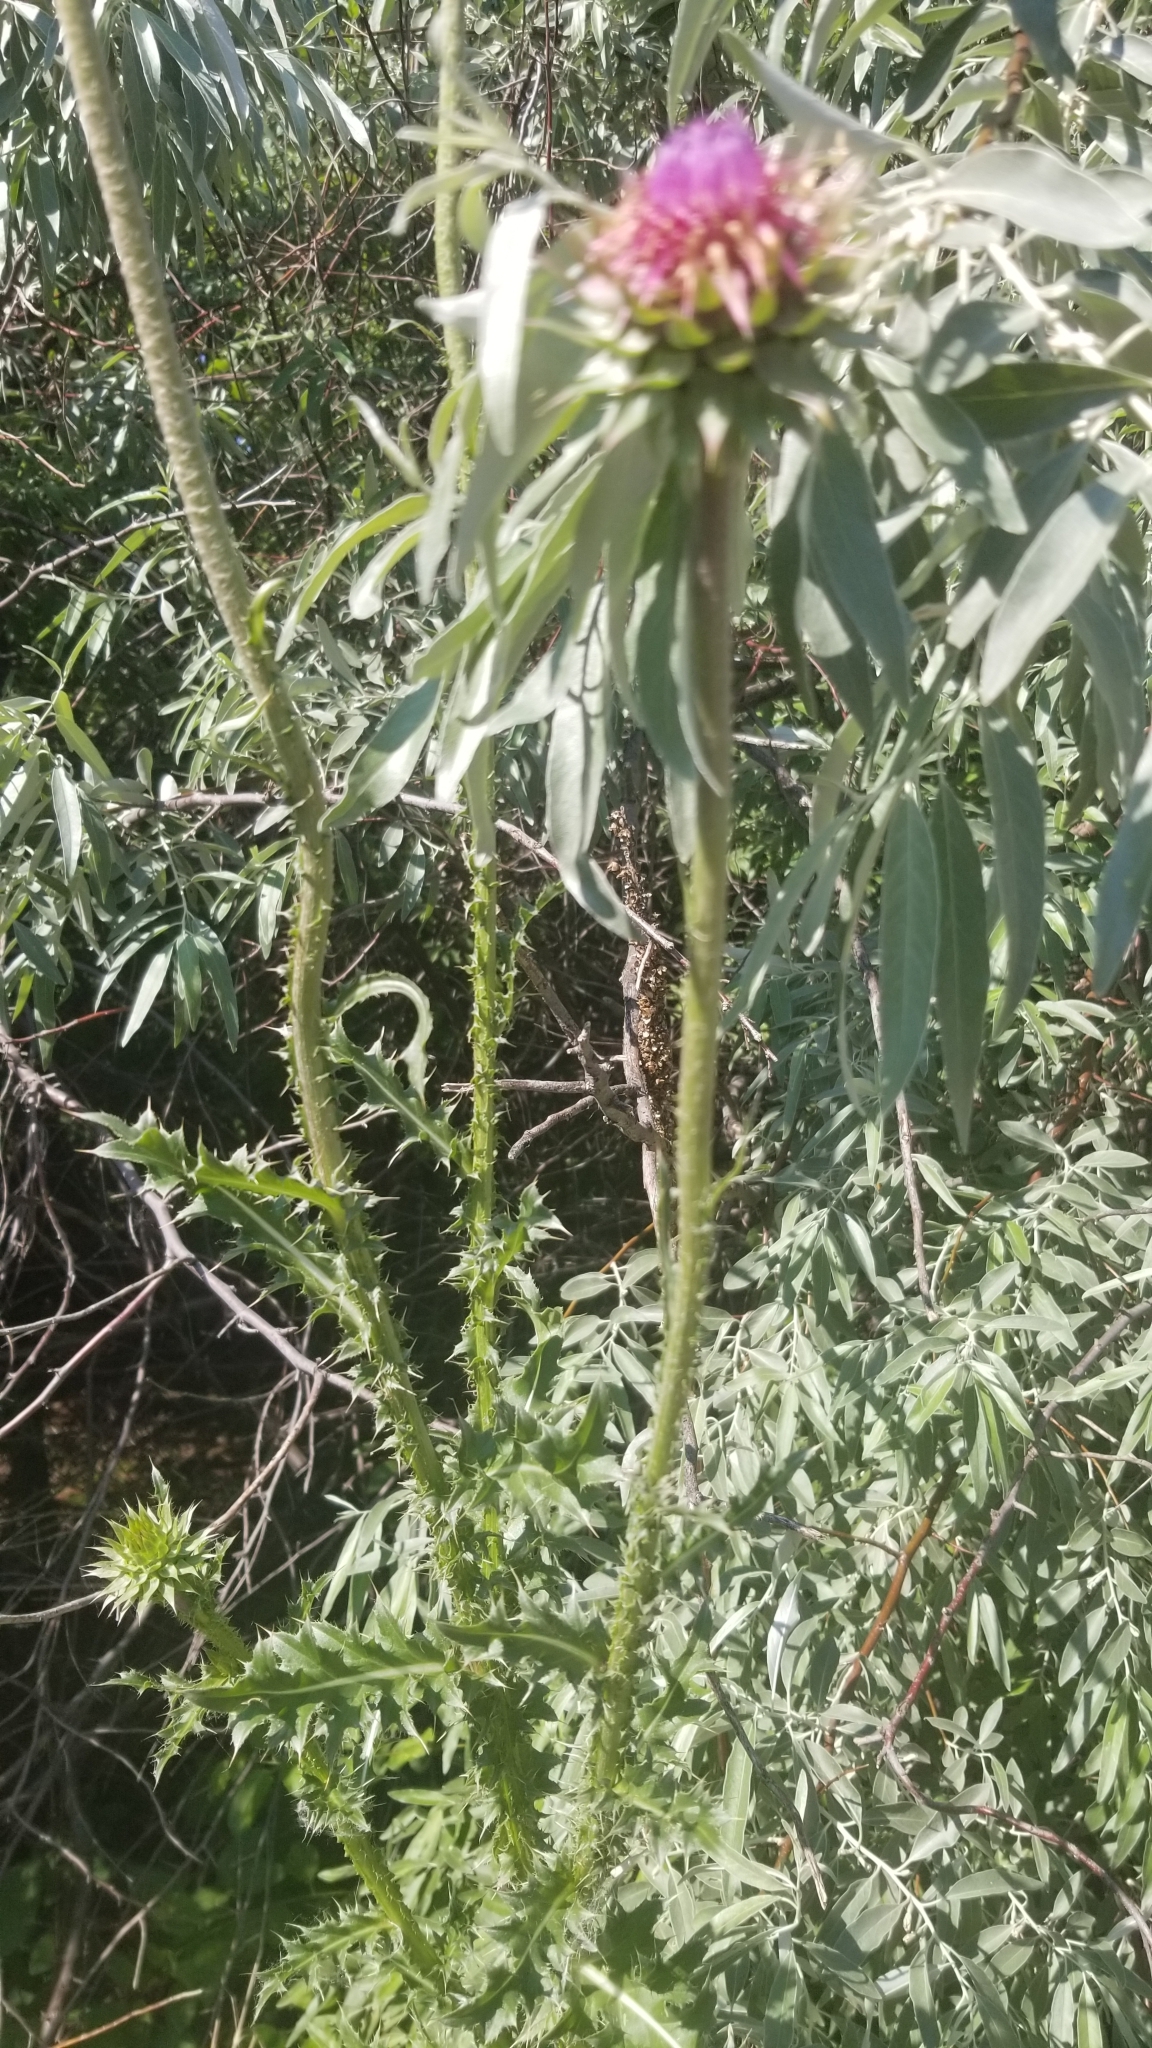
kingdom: Plantae
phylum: Tracheophyta
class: Magnoliopsida
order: Asterales
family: Asteraceae
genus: Carduus
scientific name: Carduus nutans
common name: Musk thistle
